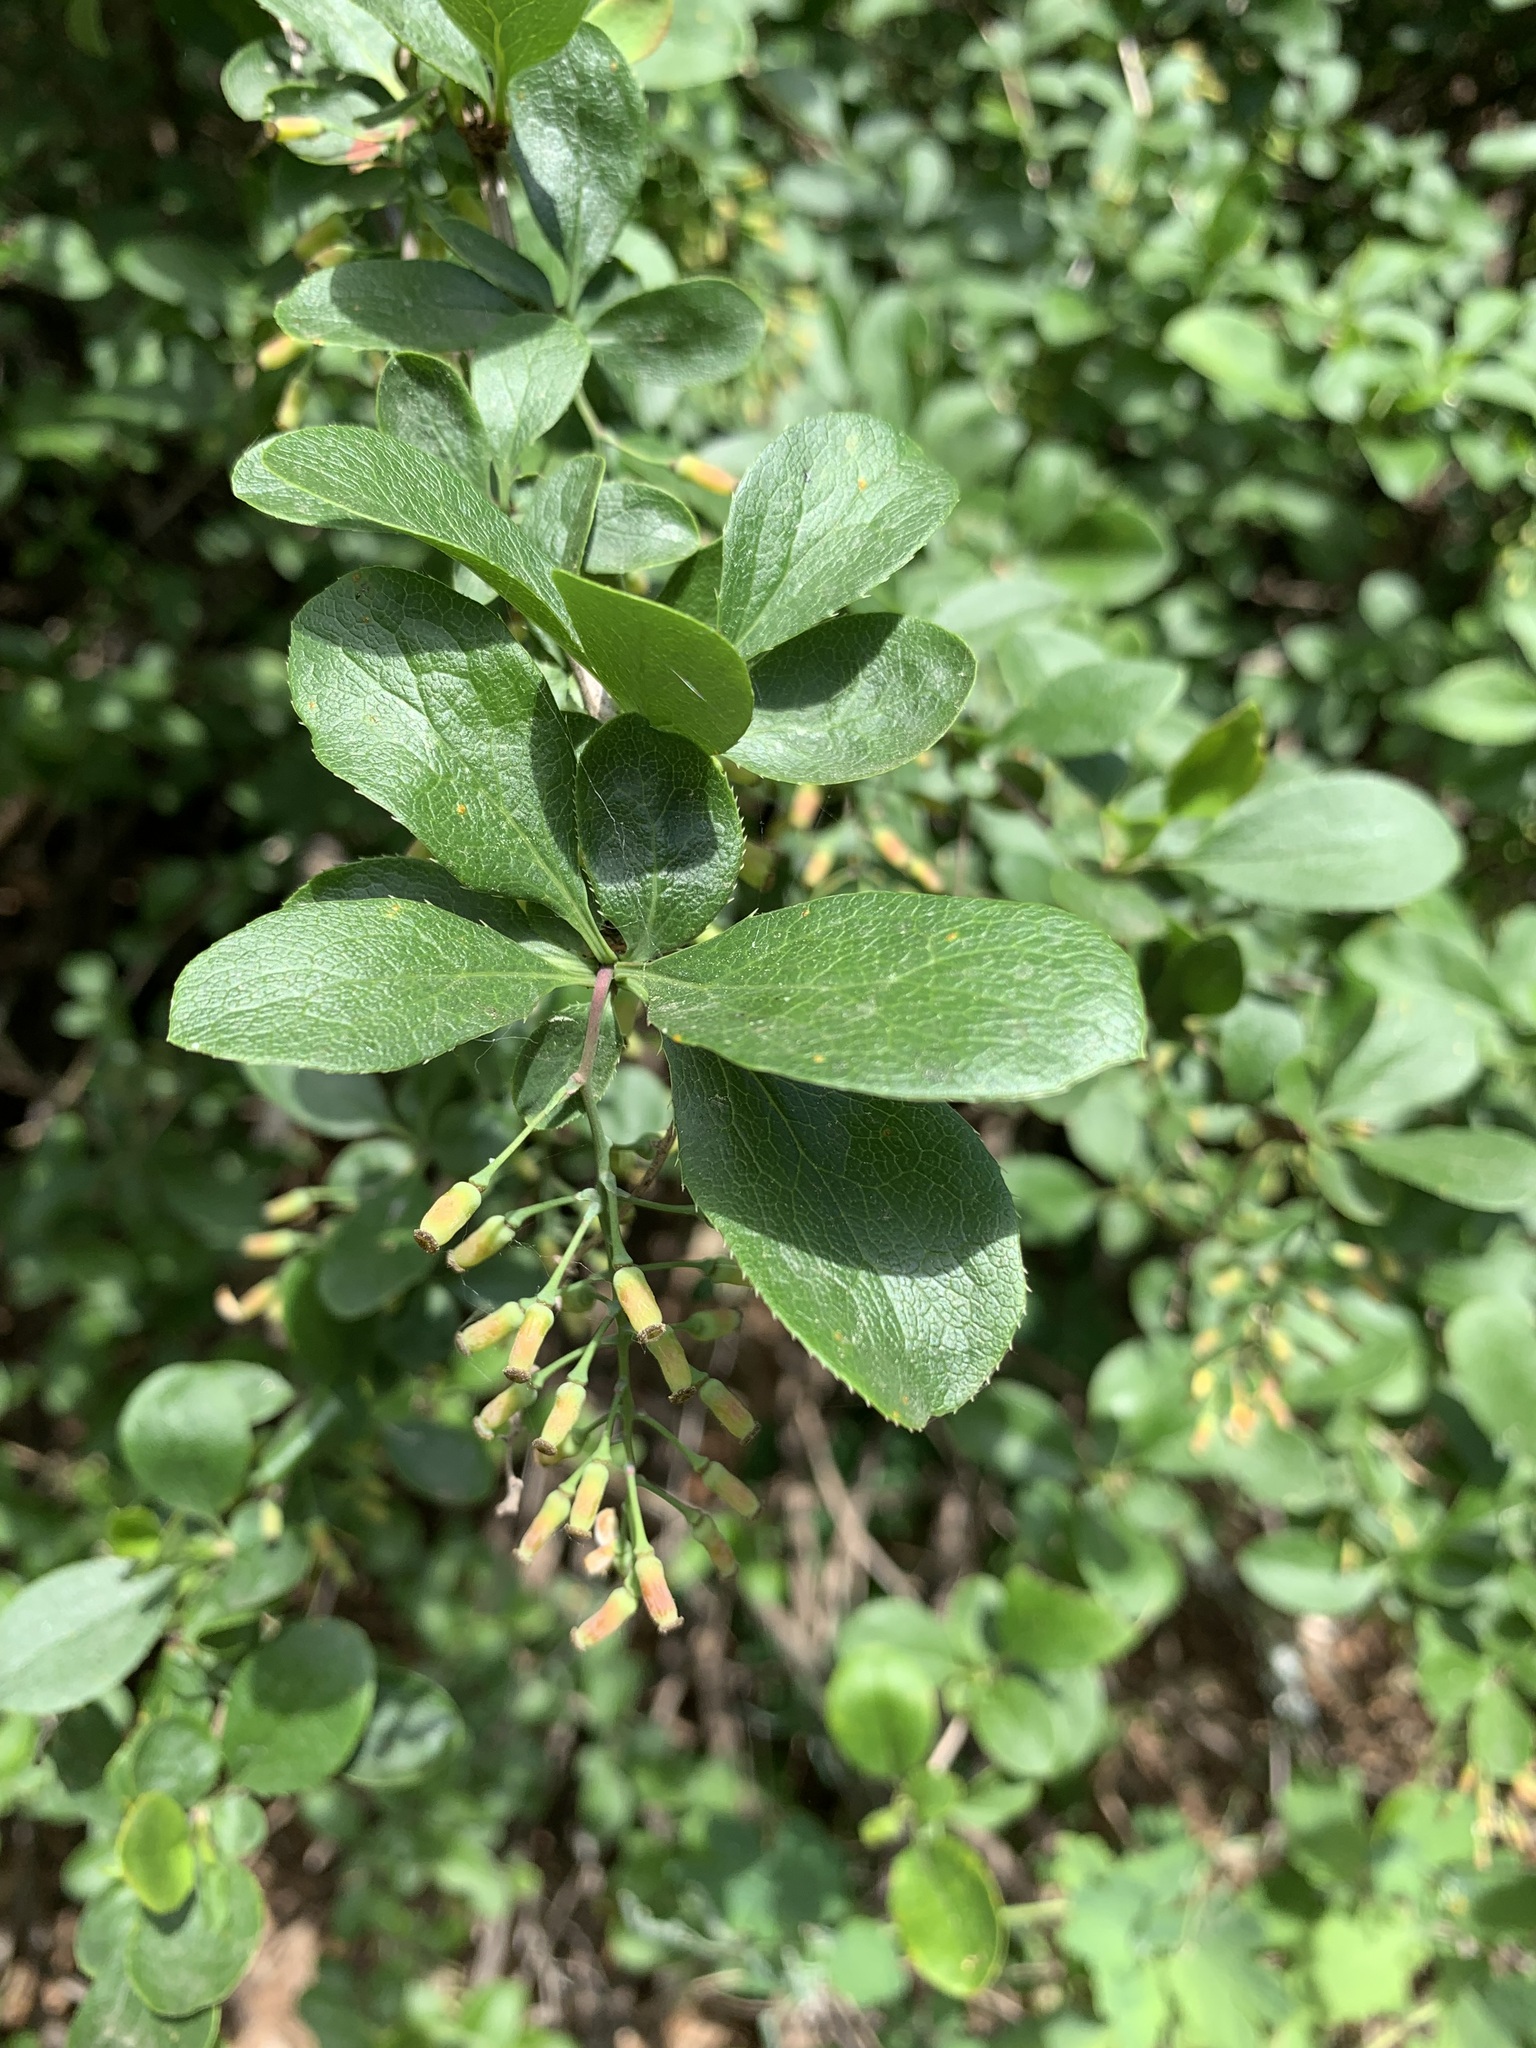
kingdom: Plantae
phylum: Tracheophyta
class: Magnoliopsida
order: Ranunculales
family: Berberidaceae
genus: Berberis
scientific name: Berberis vulgaris
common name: Barberry
